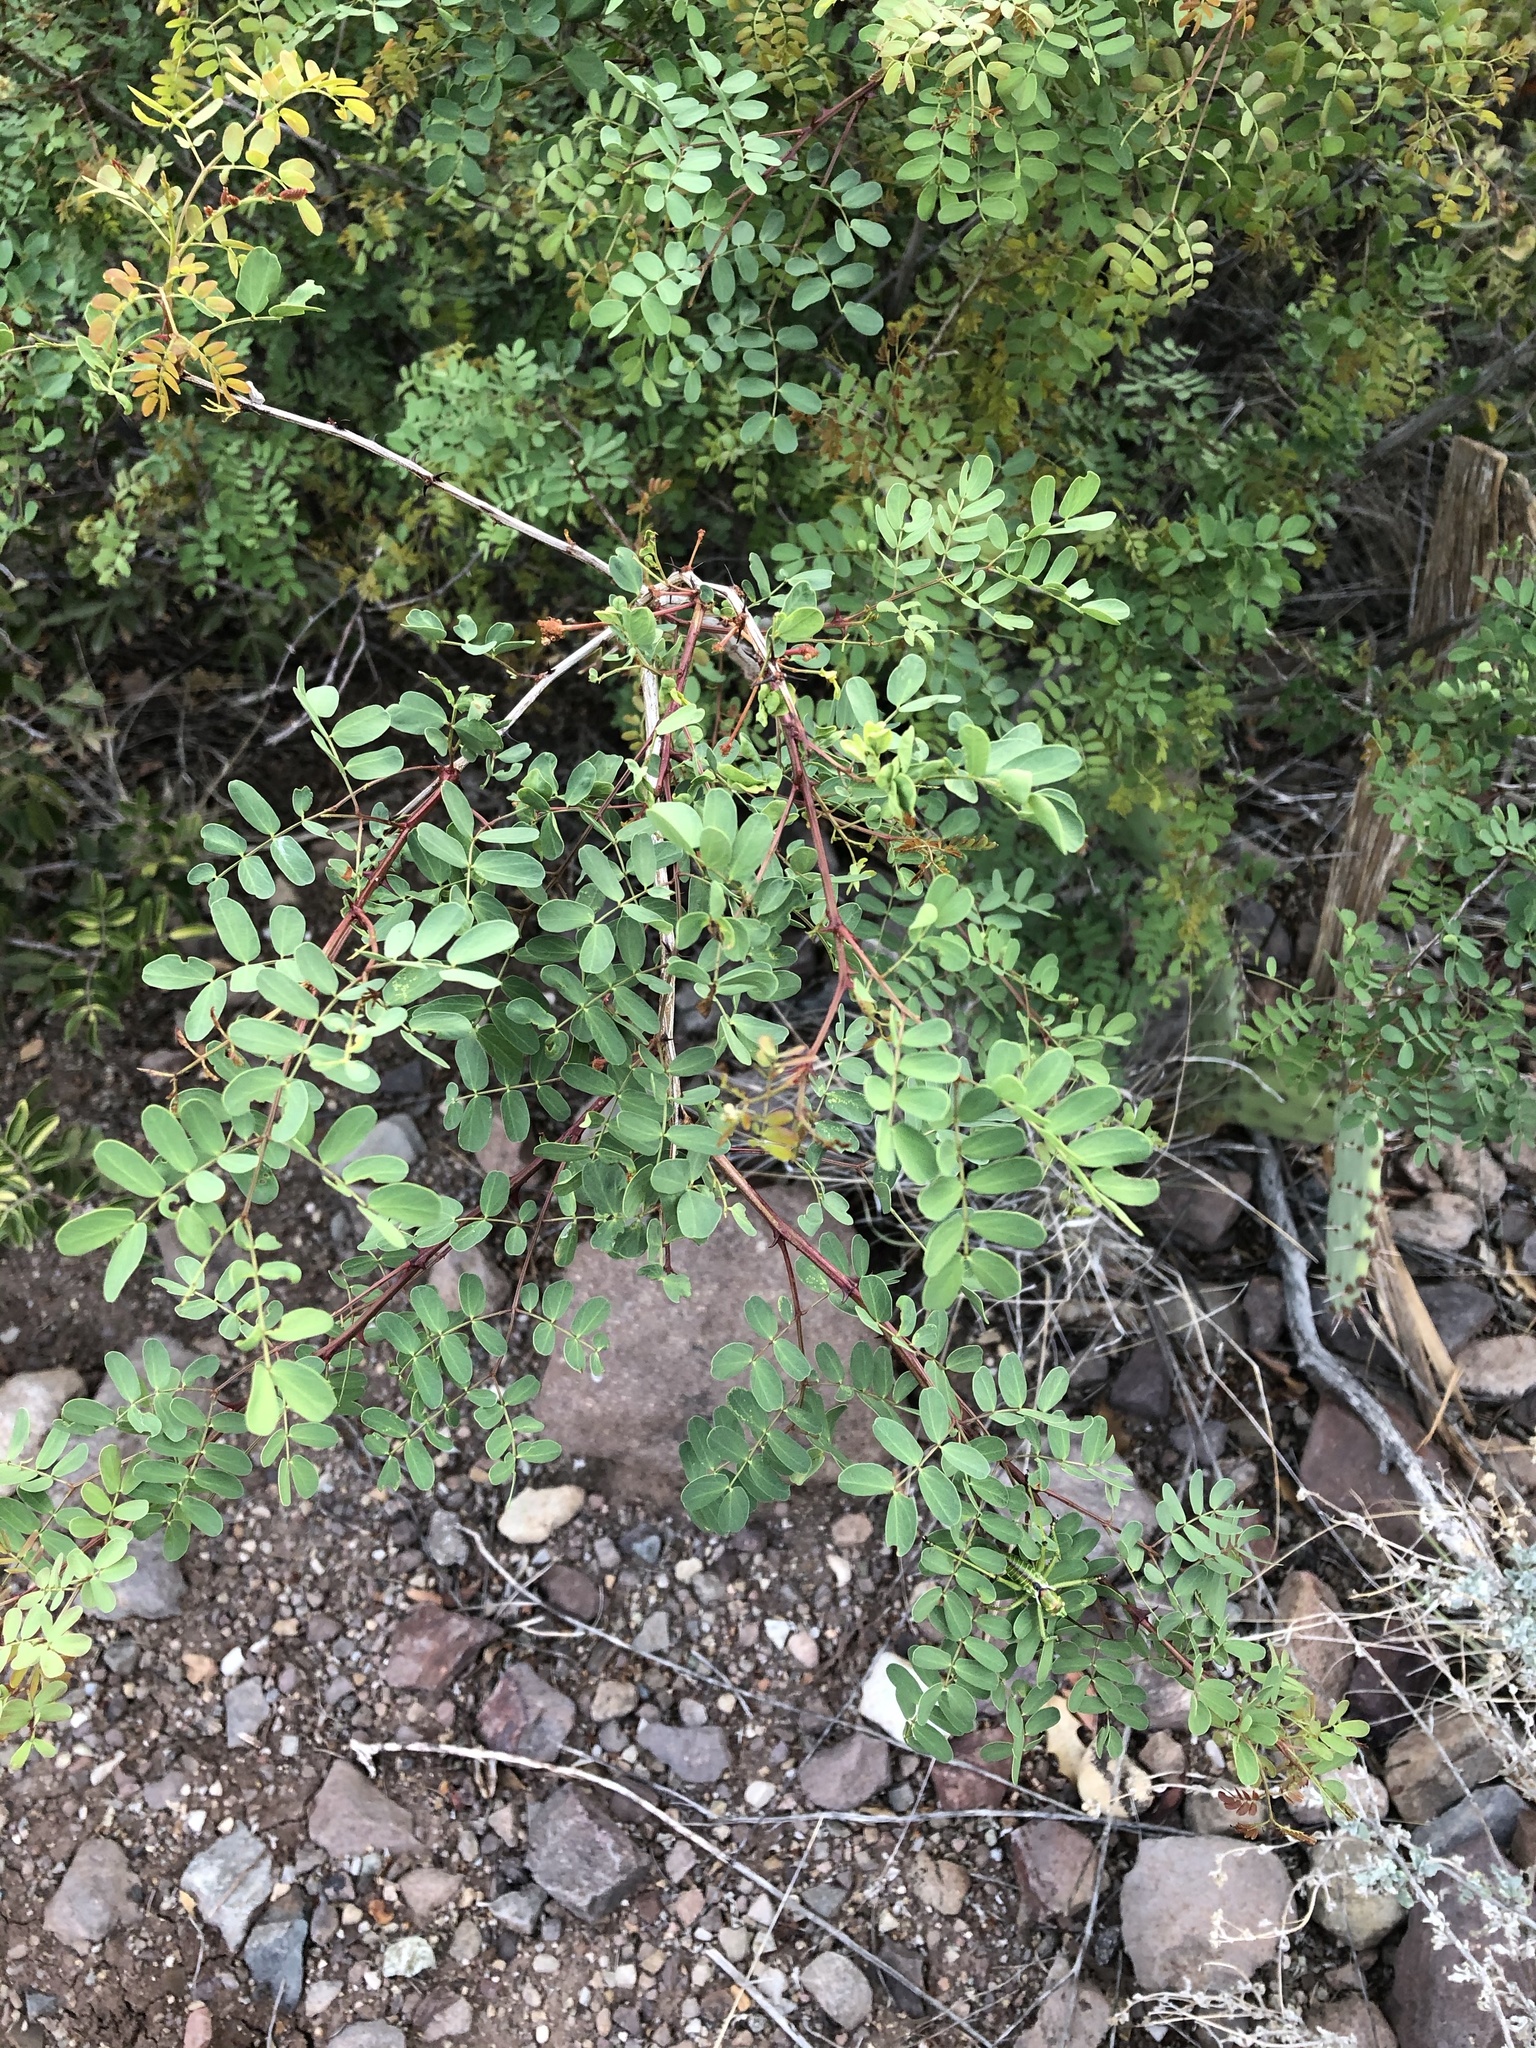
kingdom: Plantae
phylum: Tracheophyta
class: Magnoliopsida
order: Fabales
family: Fabaceae
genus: Senegalia
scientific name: Senegalia roemeriana
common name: Roemer's acacia
